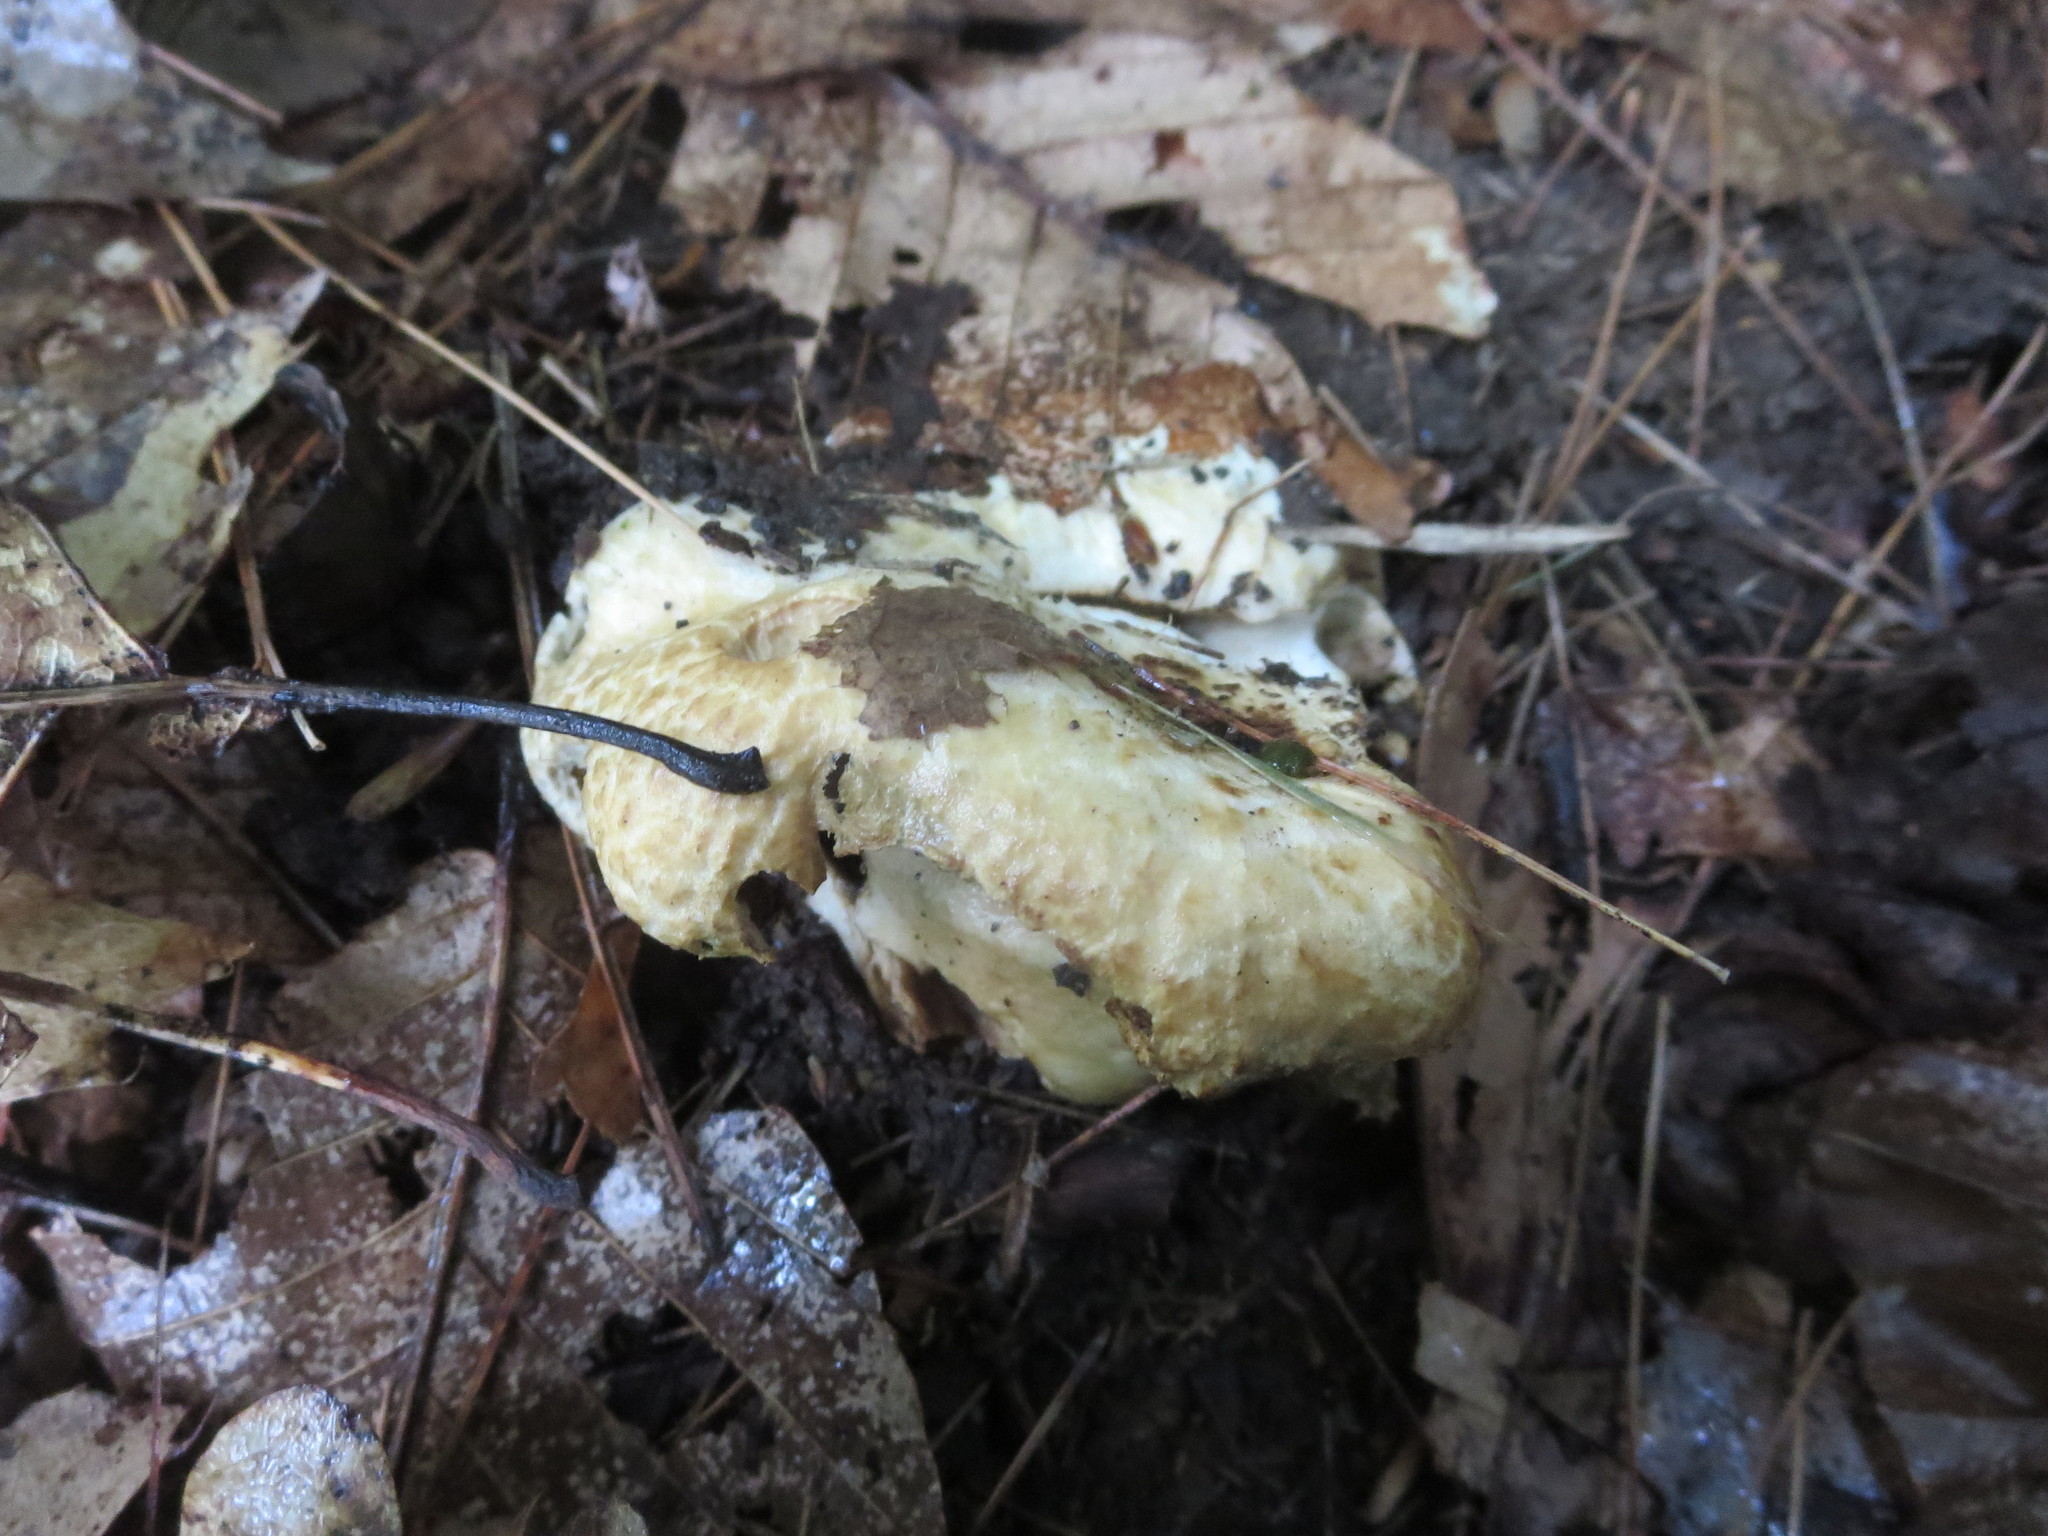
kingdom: Fungi
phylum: Basidiomycota
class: Agaricomycetes
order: Boletales
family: Gyroporaceae
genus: Gyroporus
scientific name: Gyroporus cyanescens
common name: Cornflower bolete
